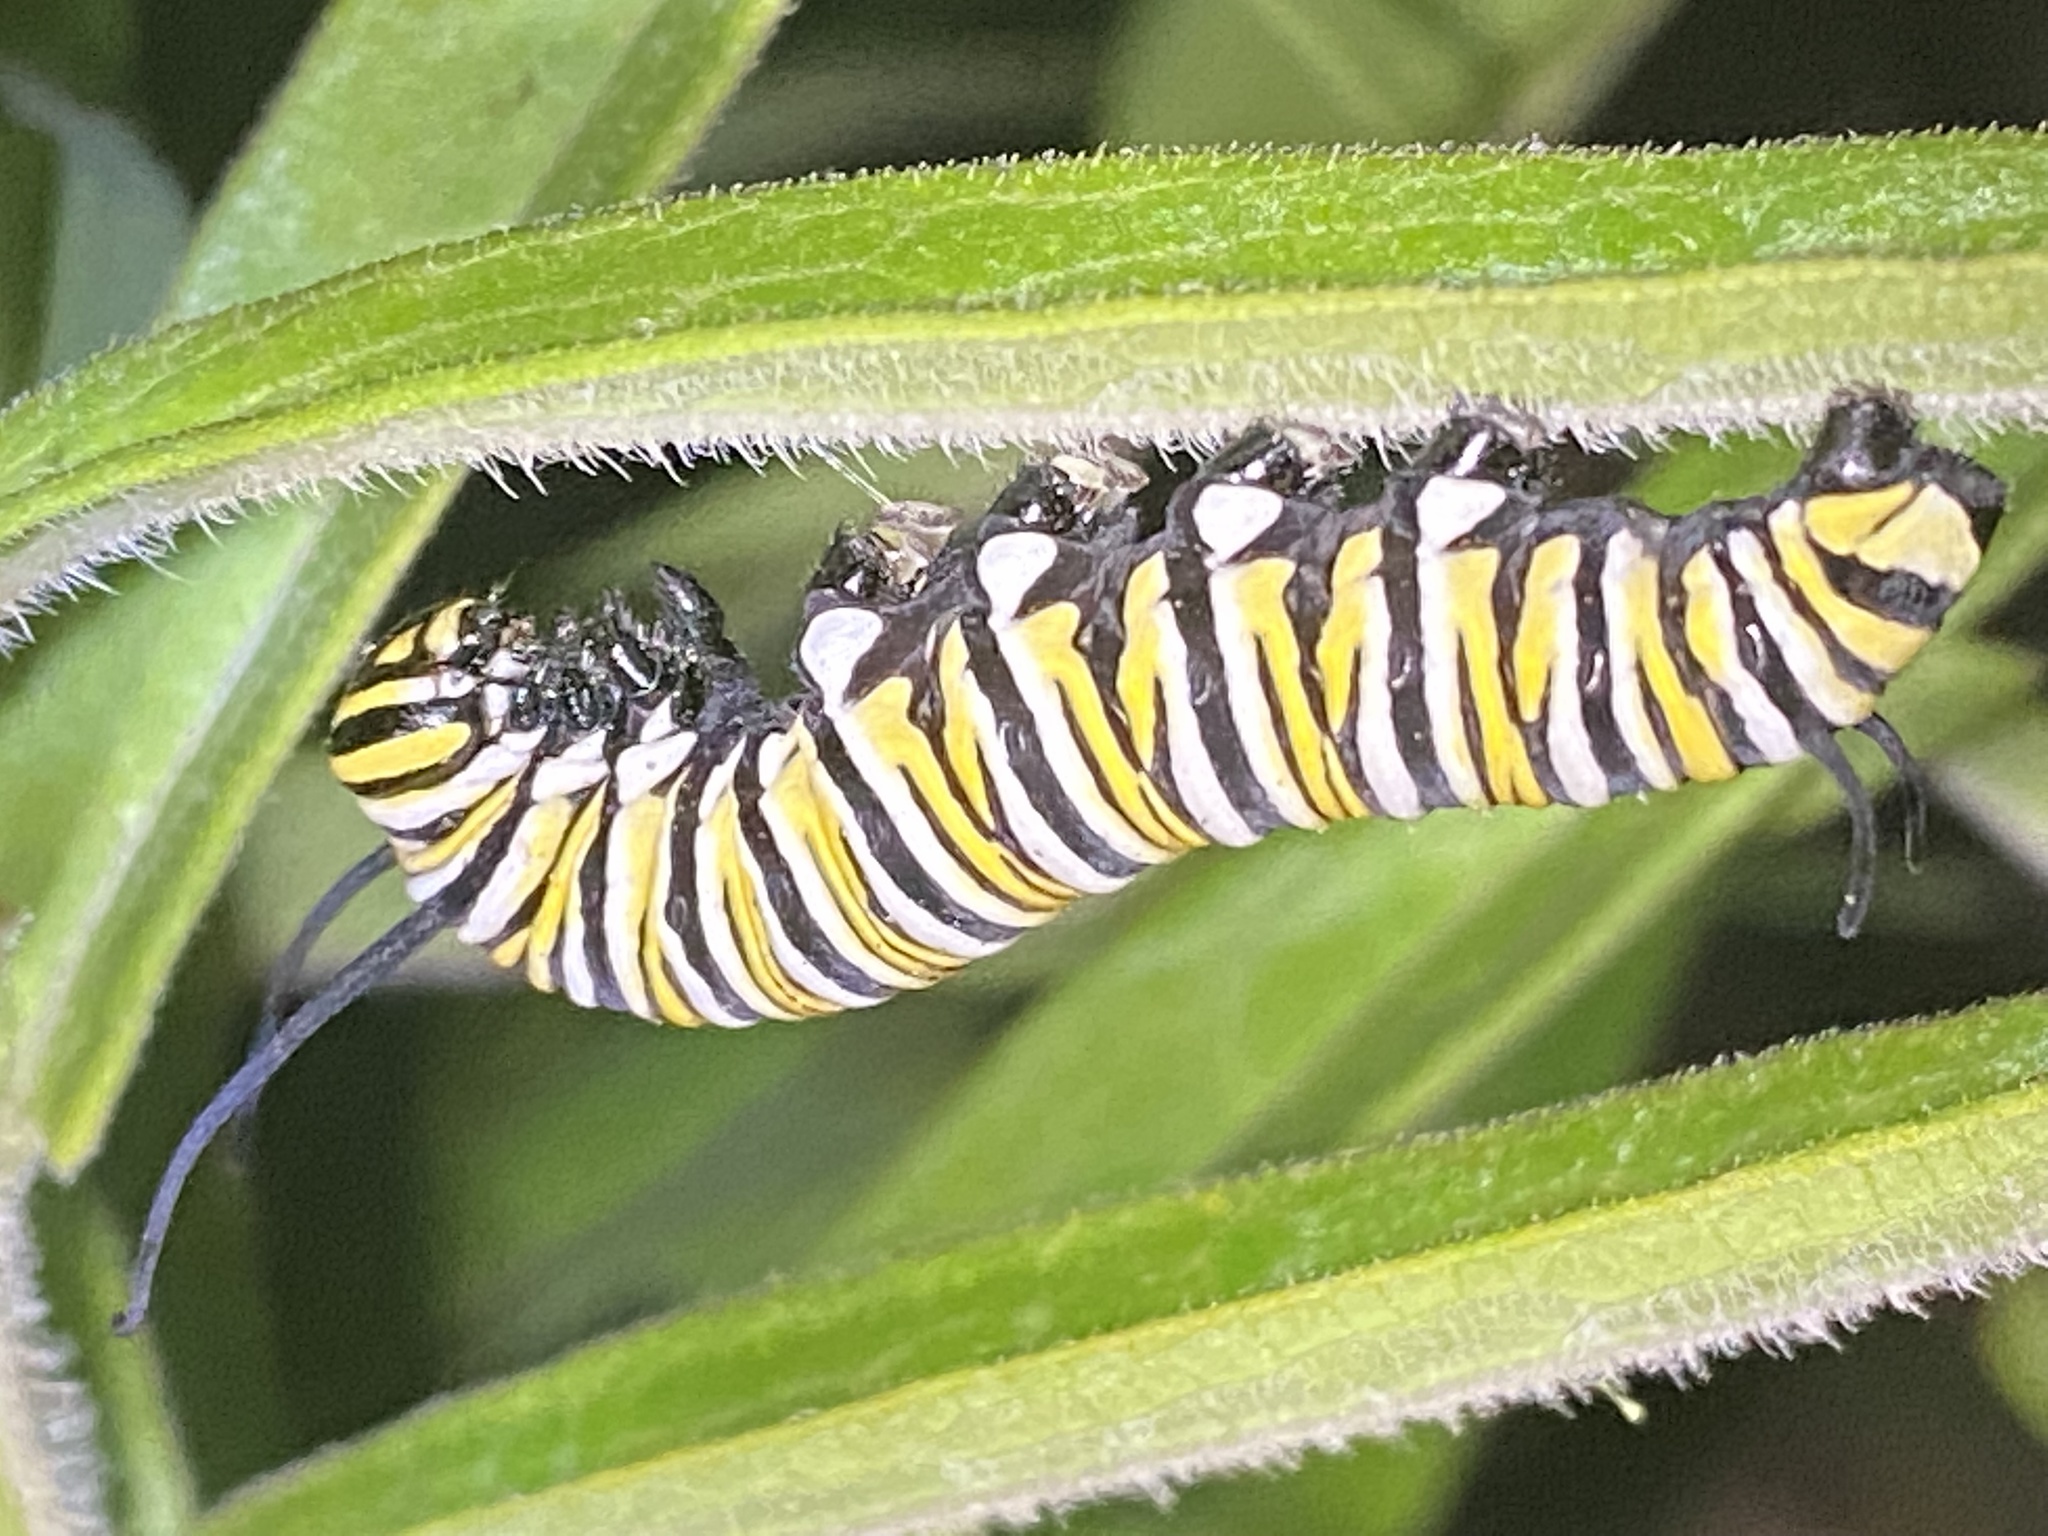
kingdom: Animalia
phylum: Arthropoda
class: Insecta
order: Lepidoptera
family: Nymphalidae
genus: Danaus
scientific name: Danaus plexippus
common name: Monarch
